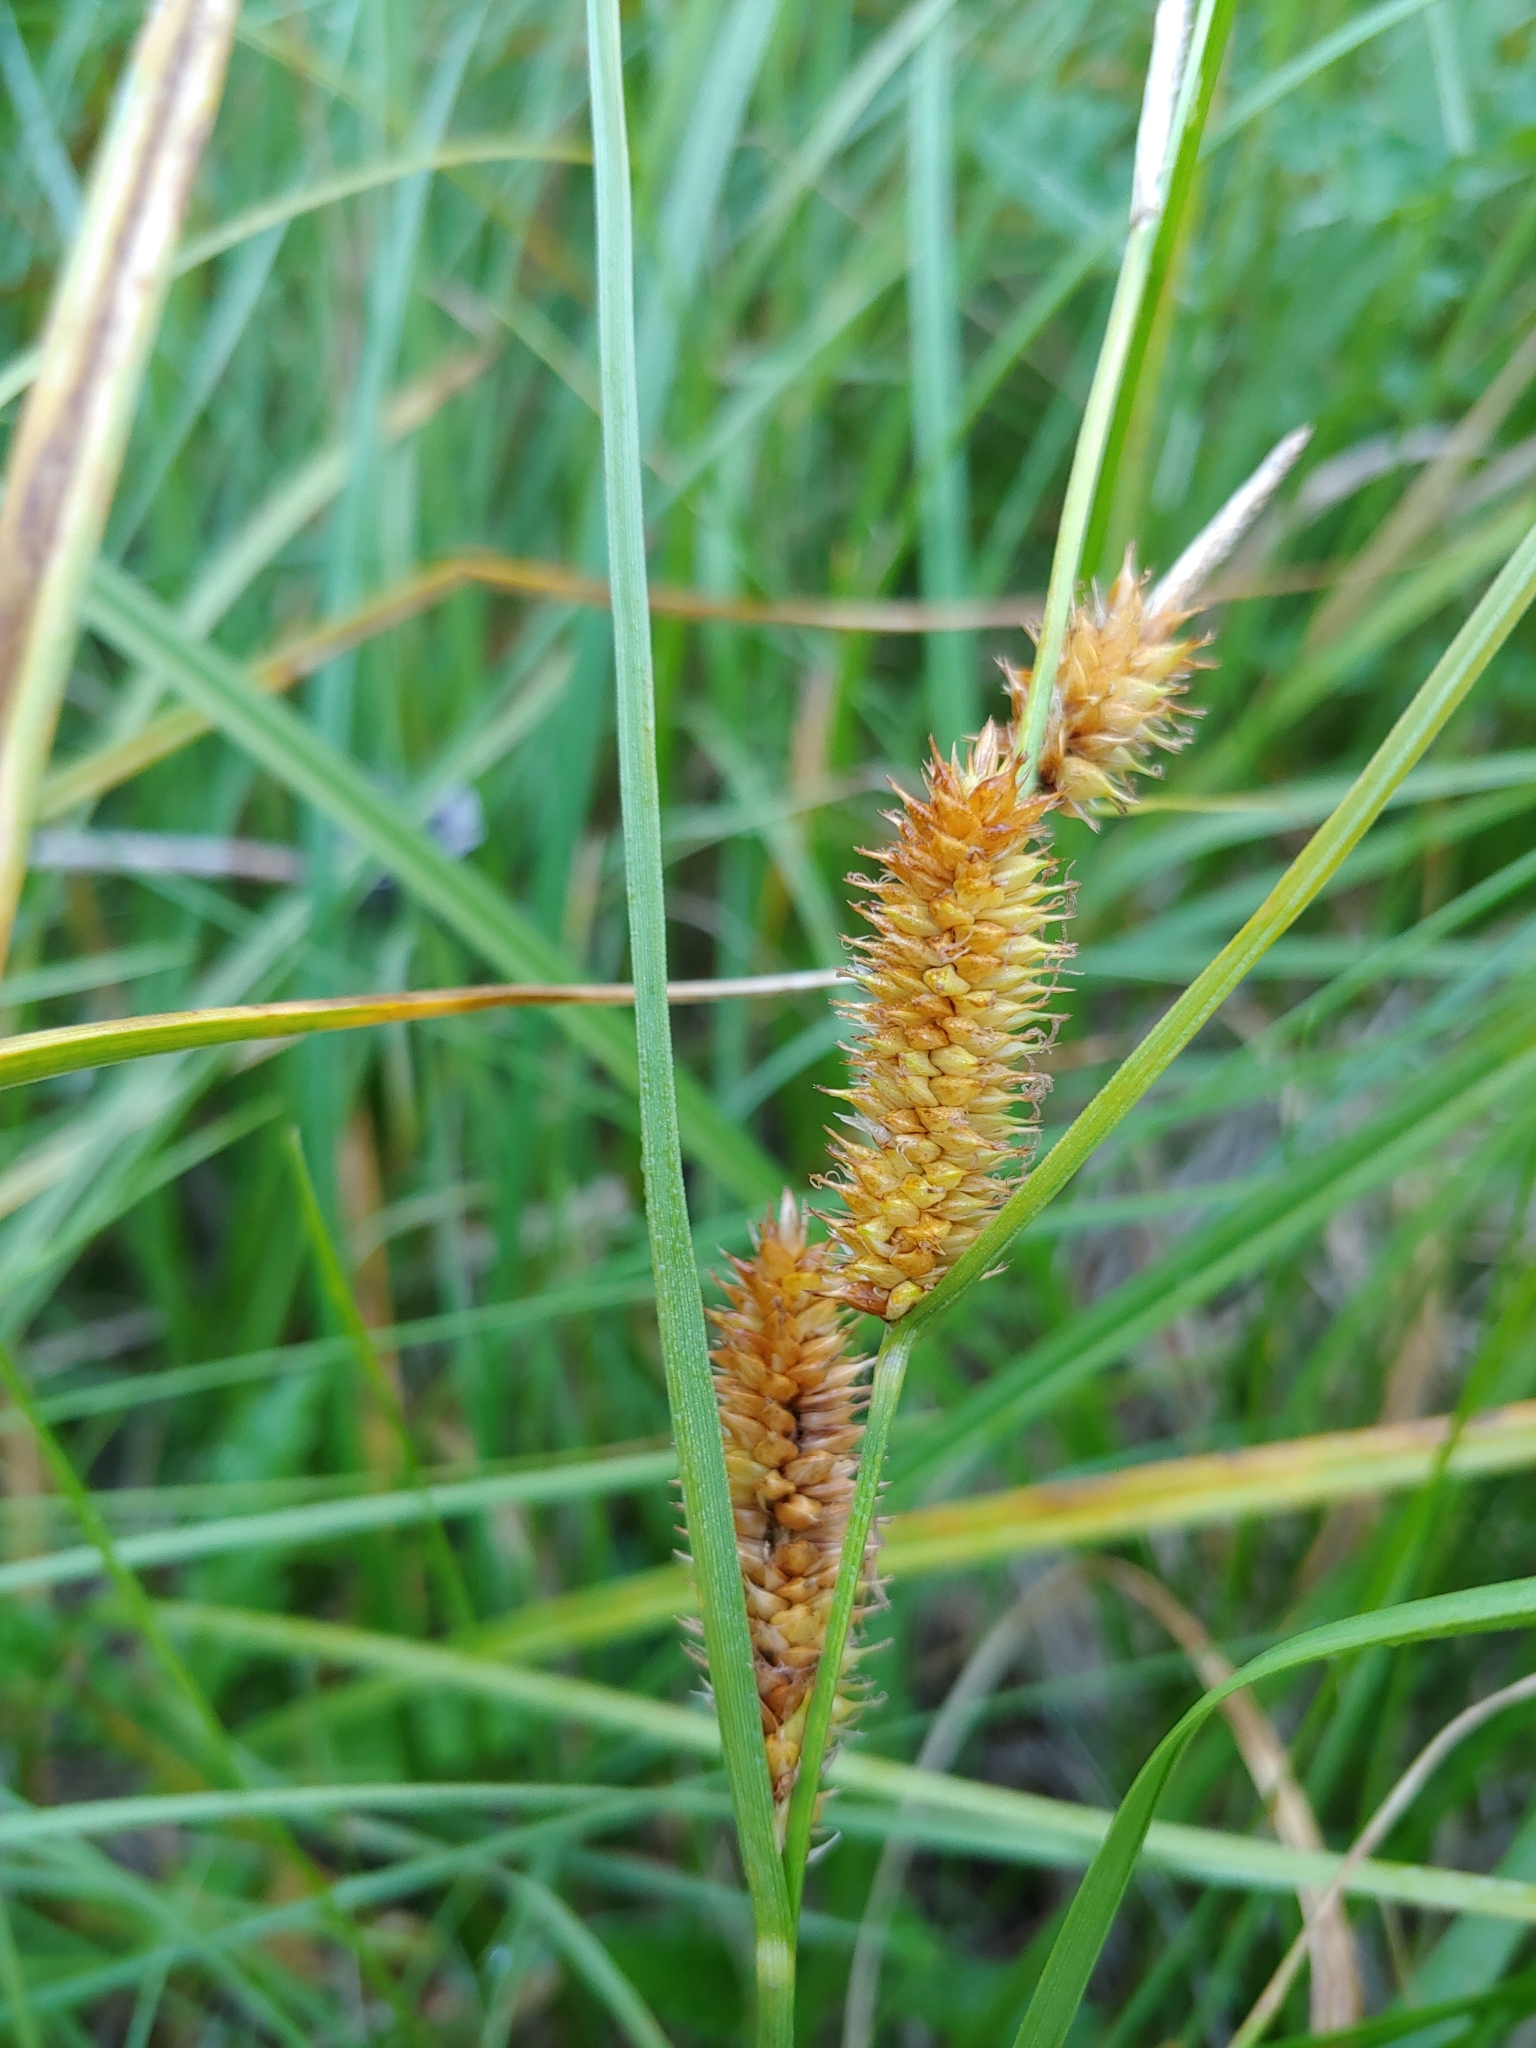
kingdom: Plantae
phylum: Tracheophyta
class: Liliopsida
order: Poales
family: Cyperaceae
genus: Carex
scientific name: Carex utriculata
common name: Beaked sedge
